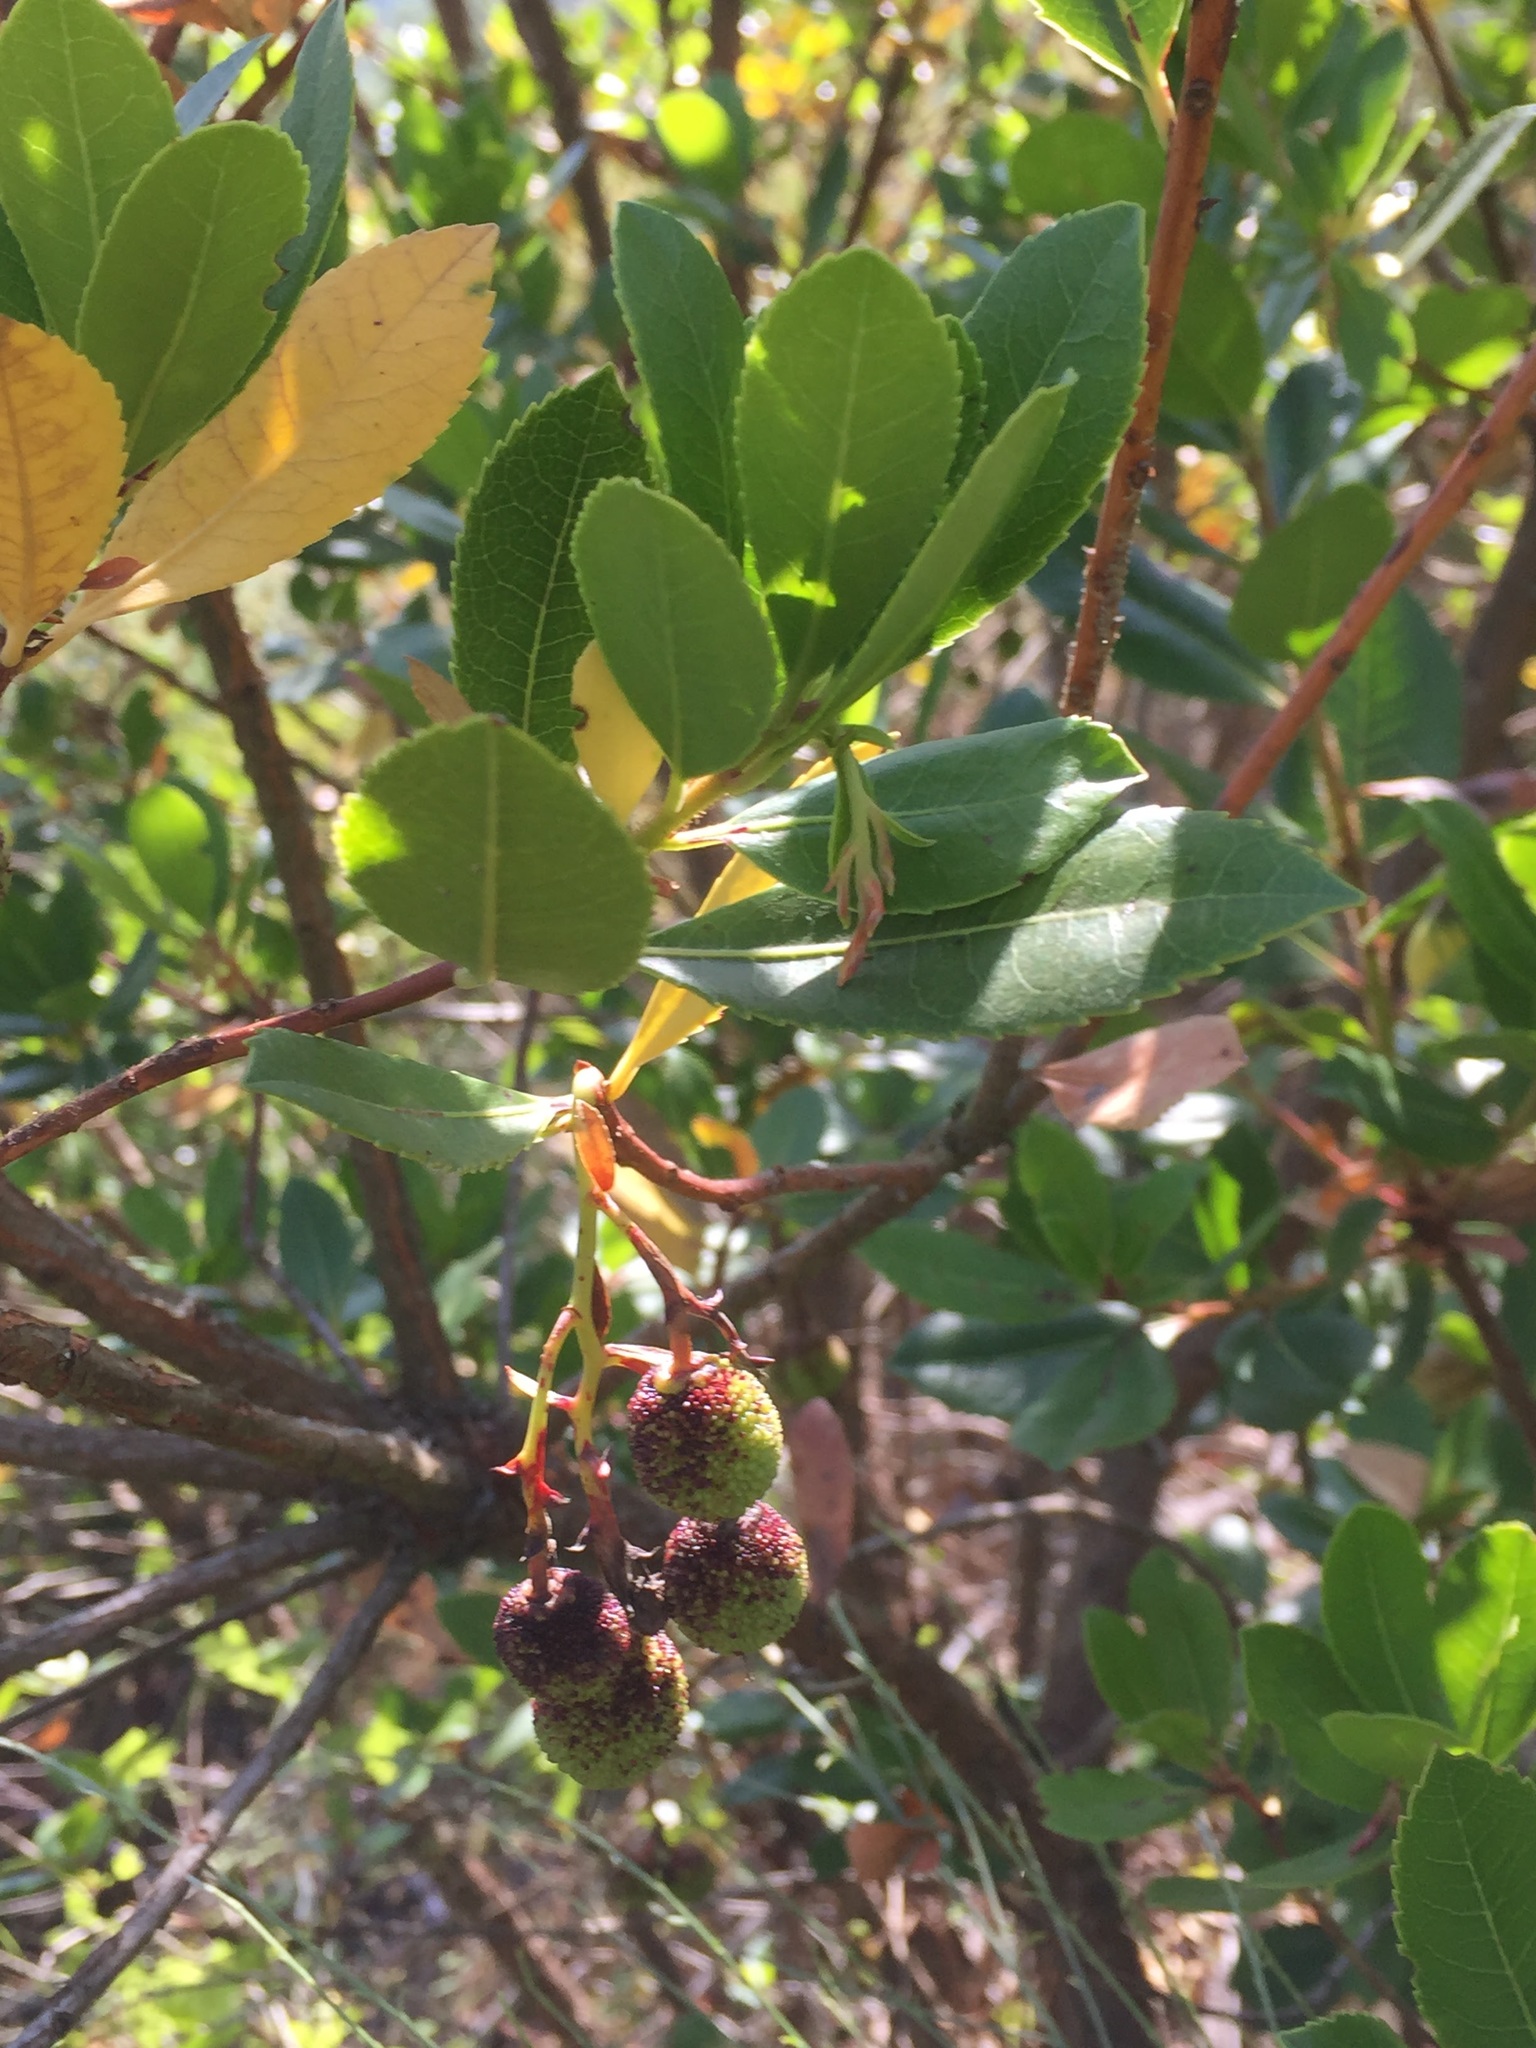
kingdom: Plantae
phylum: Tracheophyta
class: Magnoliopsida
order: Ericales
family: Ericaceae
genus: Arbutus
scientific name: Arbutus unedo
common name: Strawberry-tree
